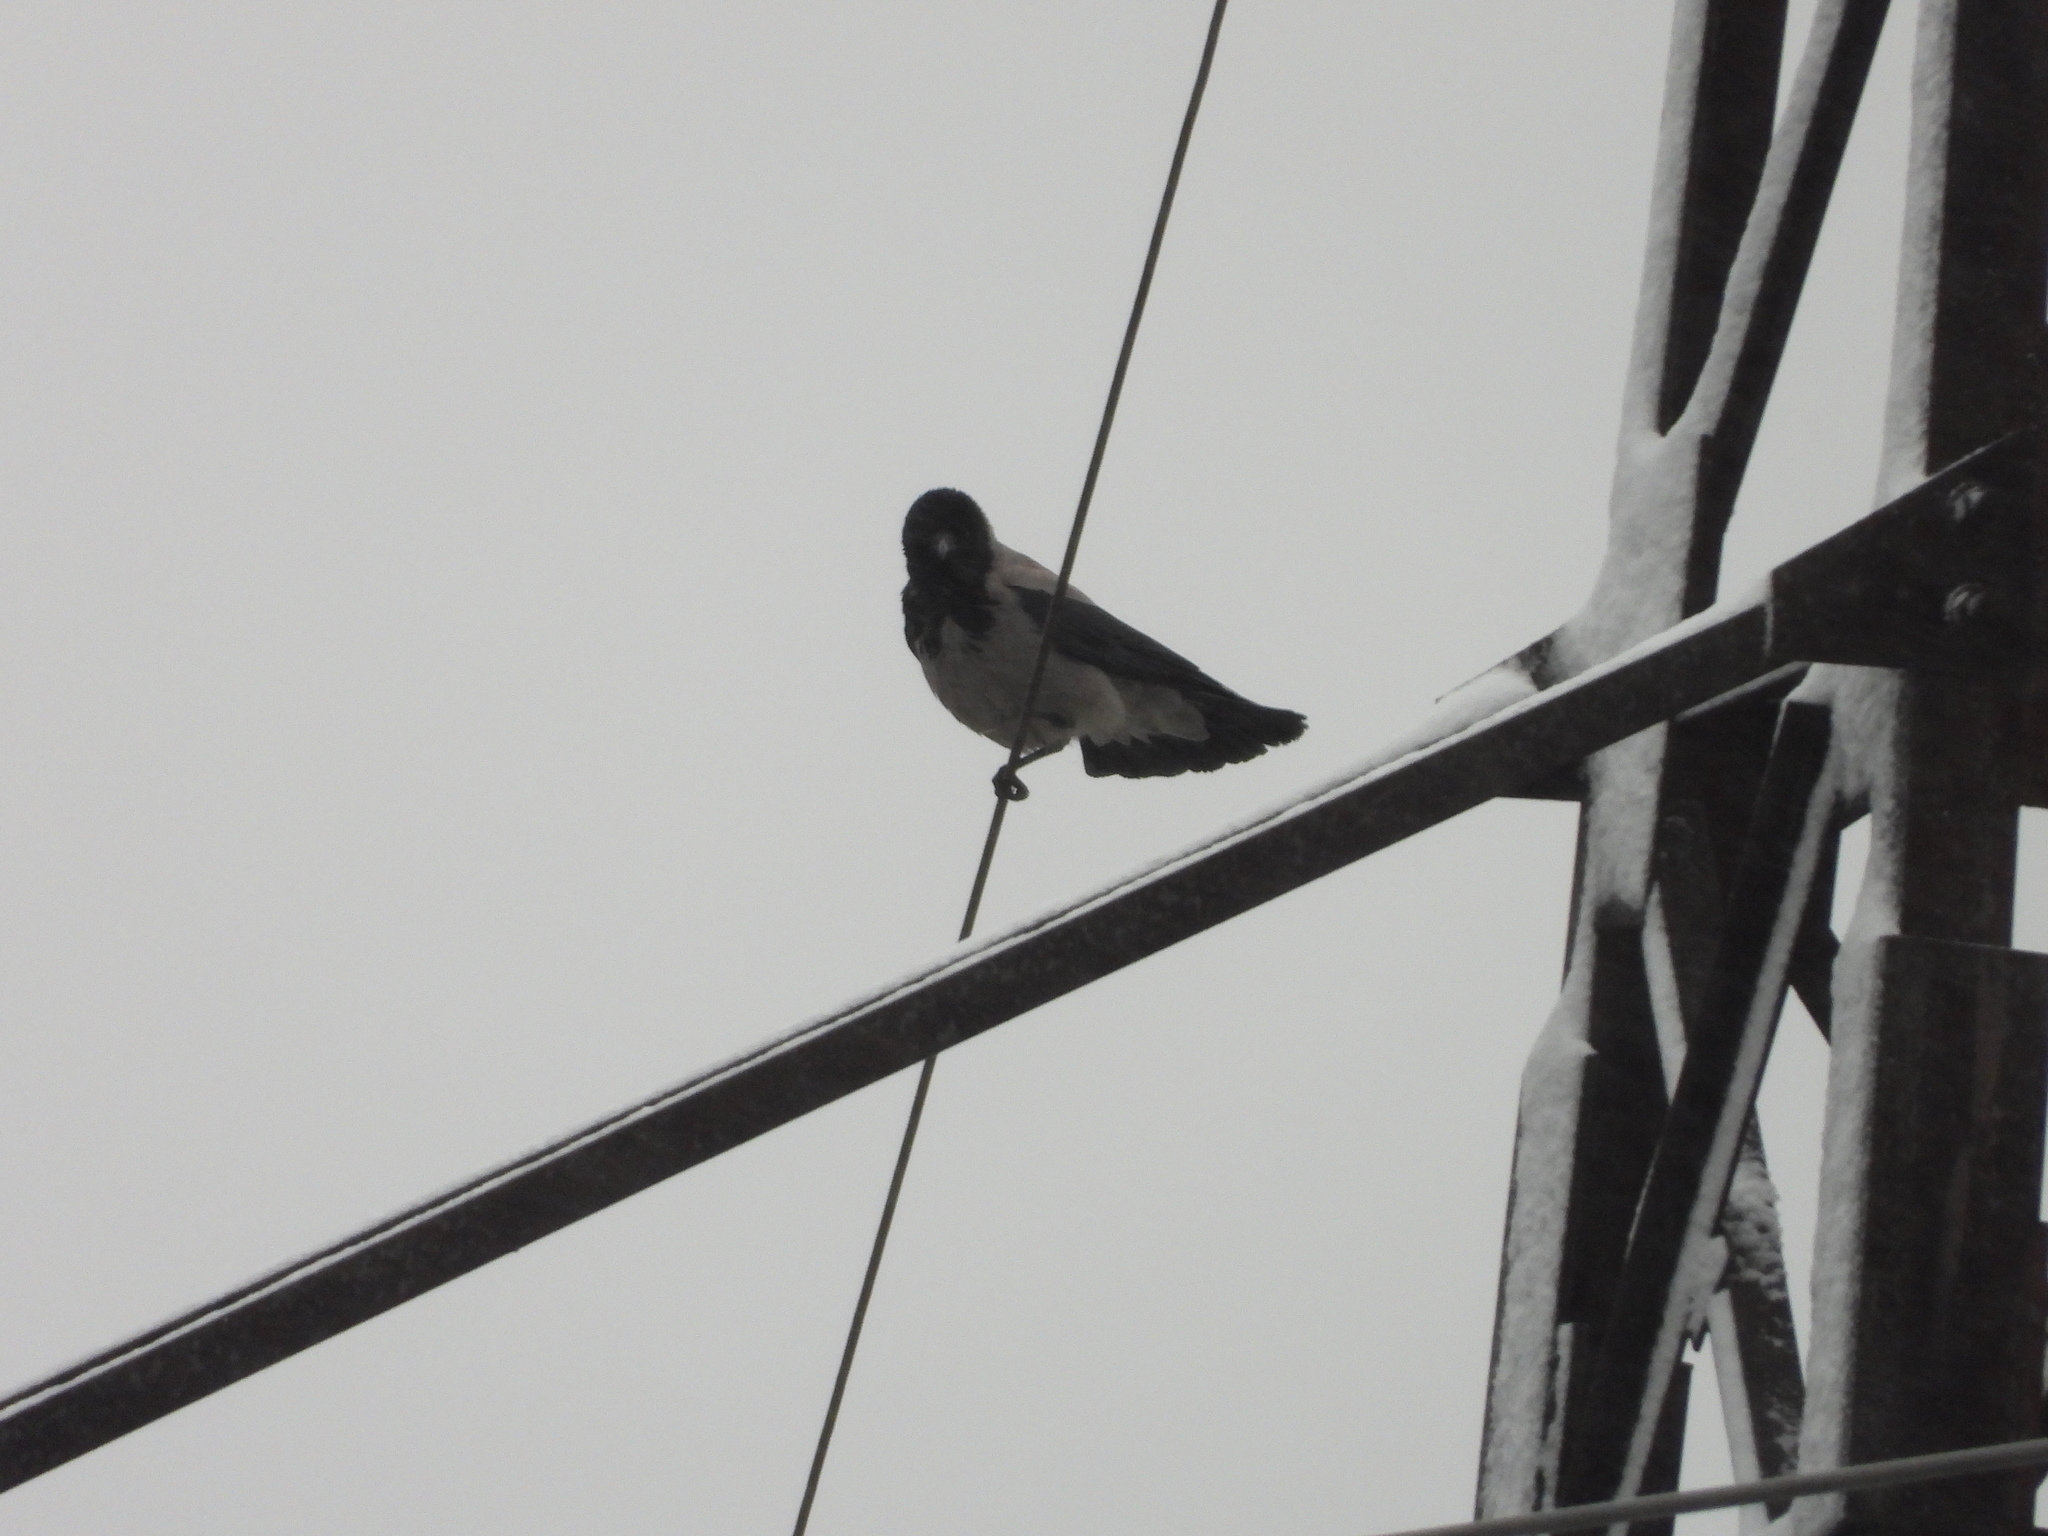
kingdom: Animalia
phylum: Chordata
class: Aves
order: Passeriformes
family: Corvidae
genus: Corvus
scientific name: Corvus cornix
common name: Hooded crow
